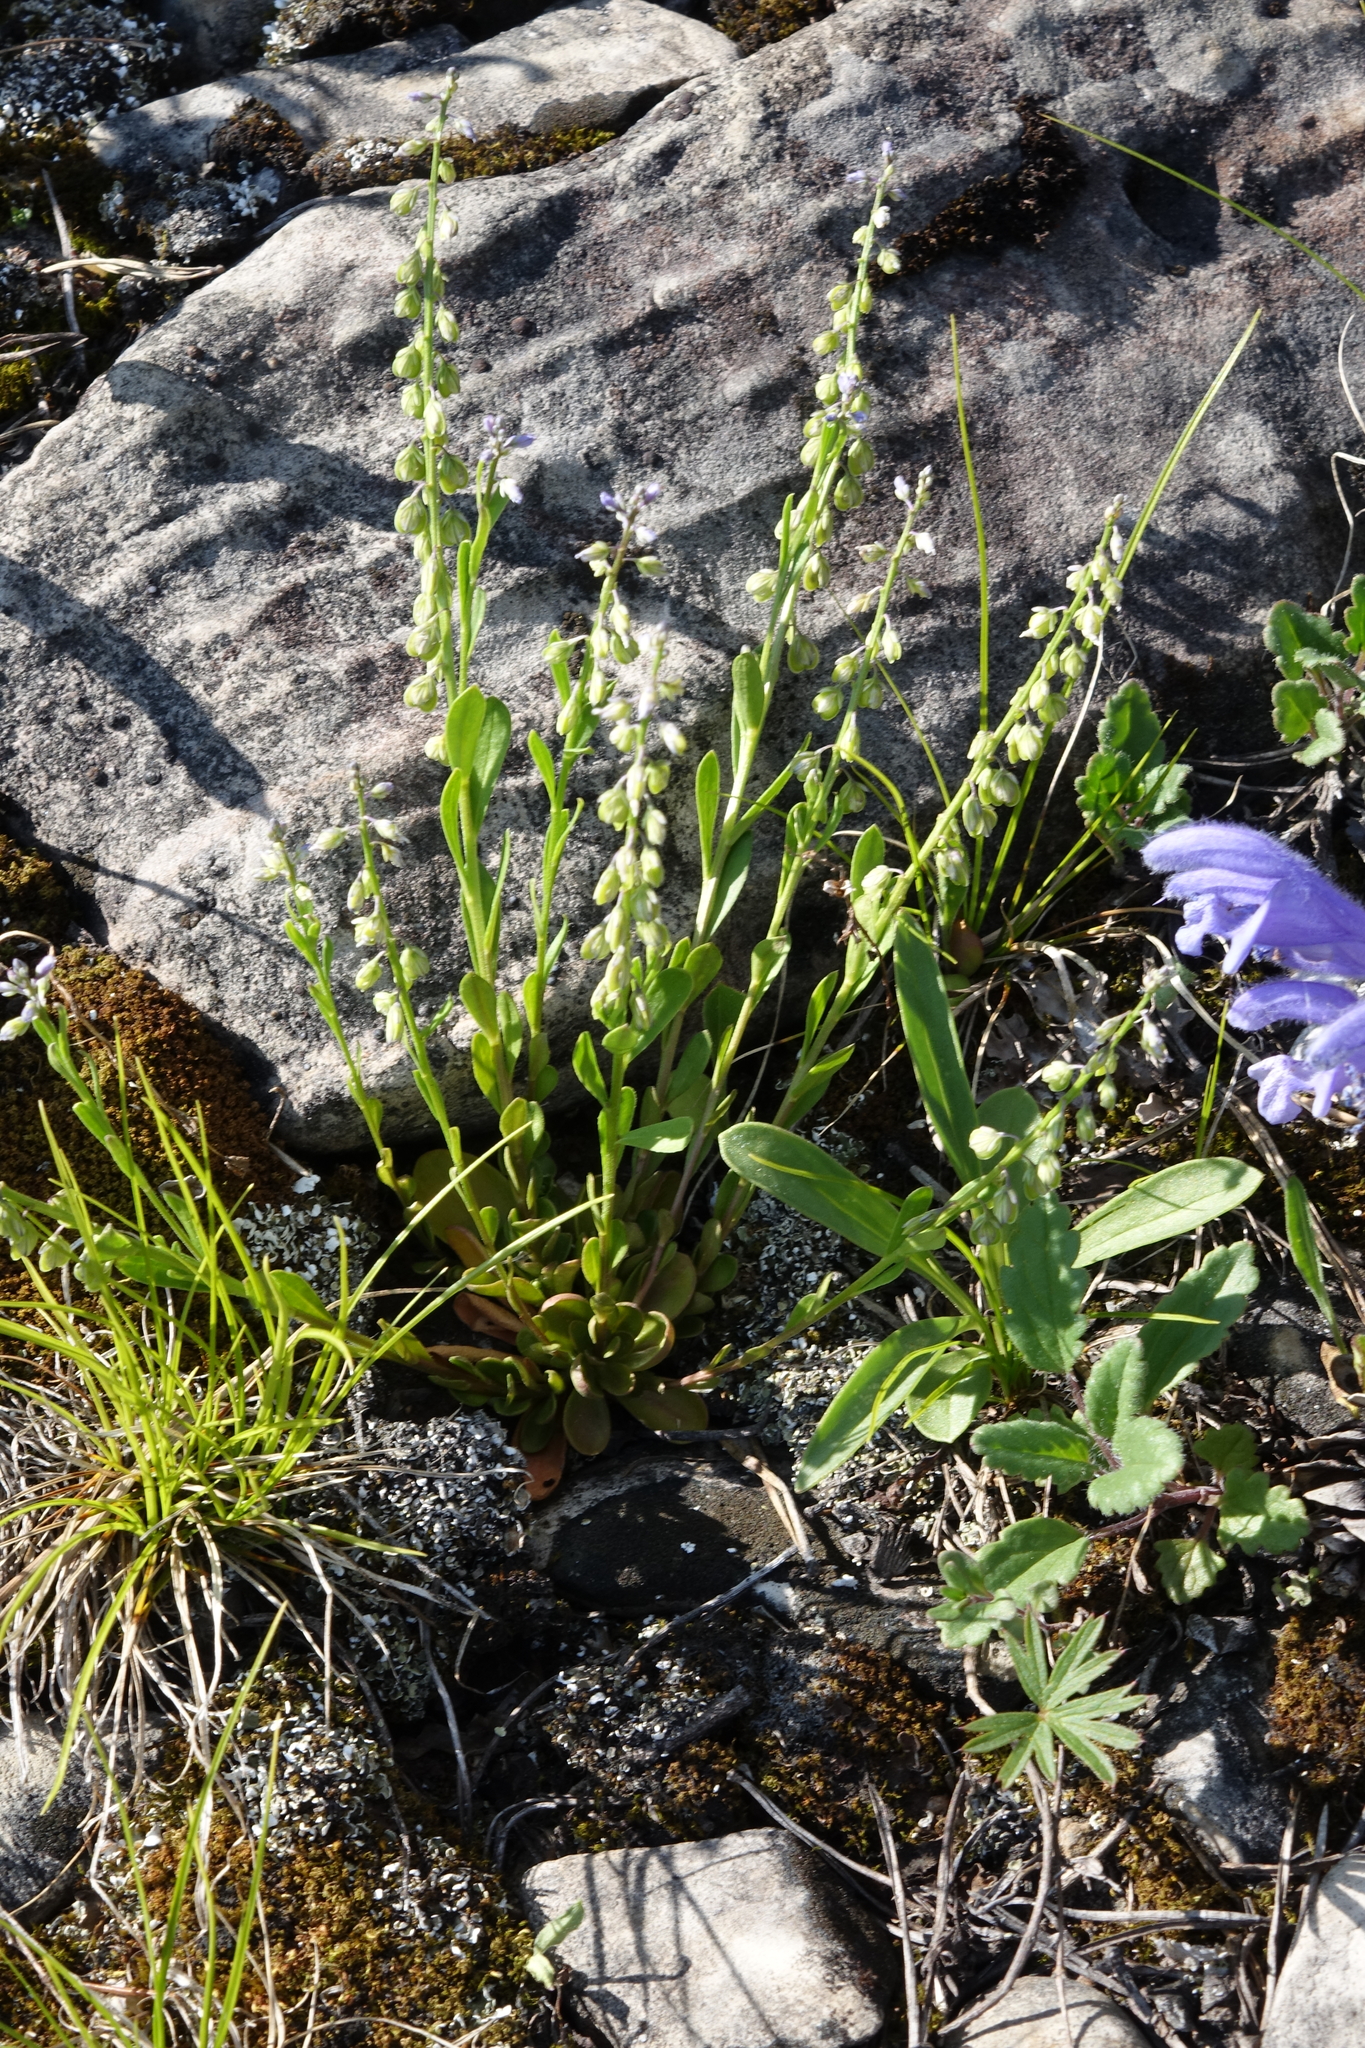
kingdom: Plantae
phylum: Tracheophyta
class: Magnoliopsida
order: Fabales
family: Polygalaceae
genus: Polygala
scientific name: Polygala amarella
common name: Dwarf milkwort
